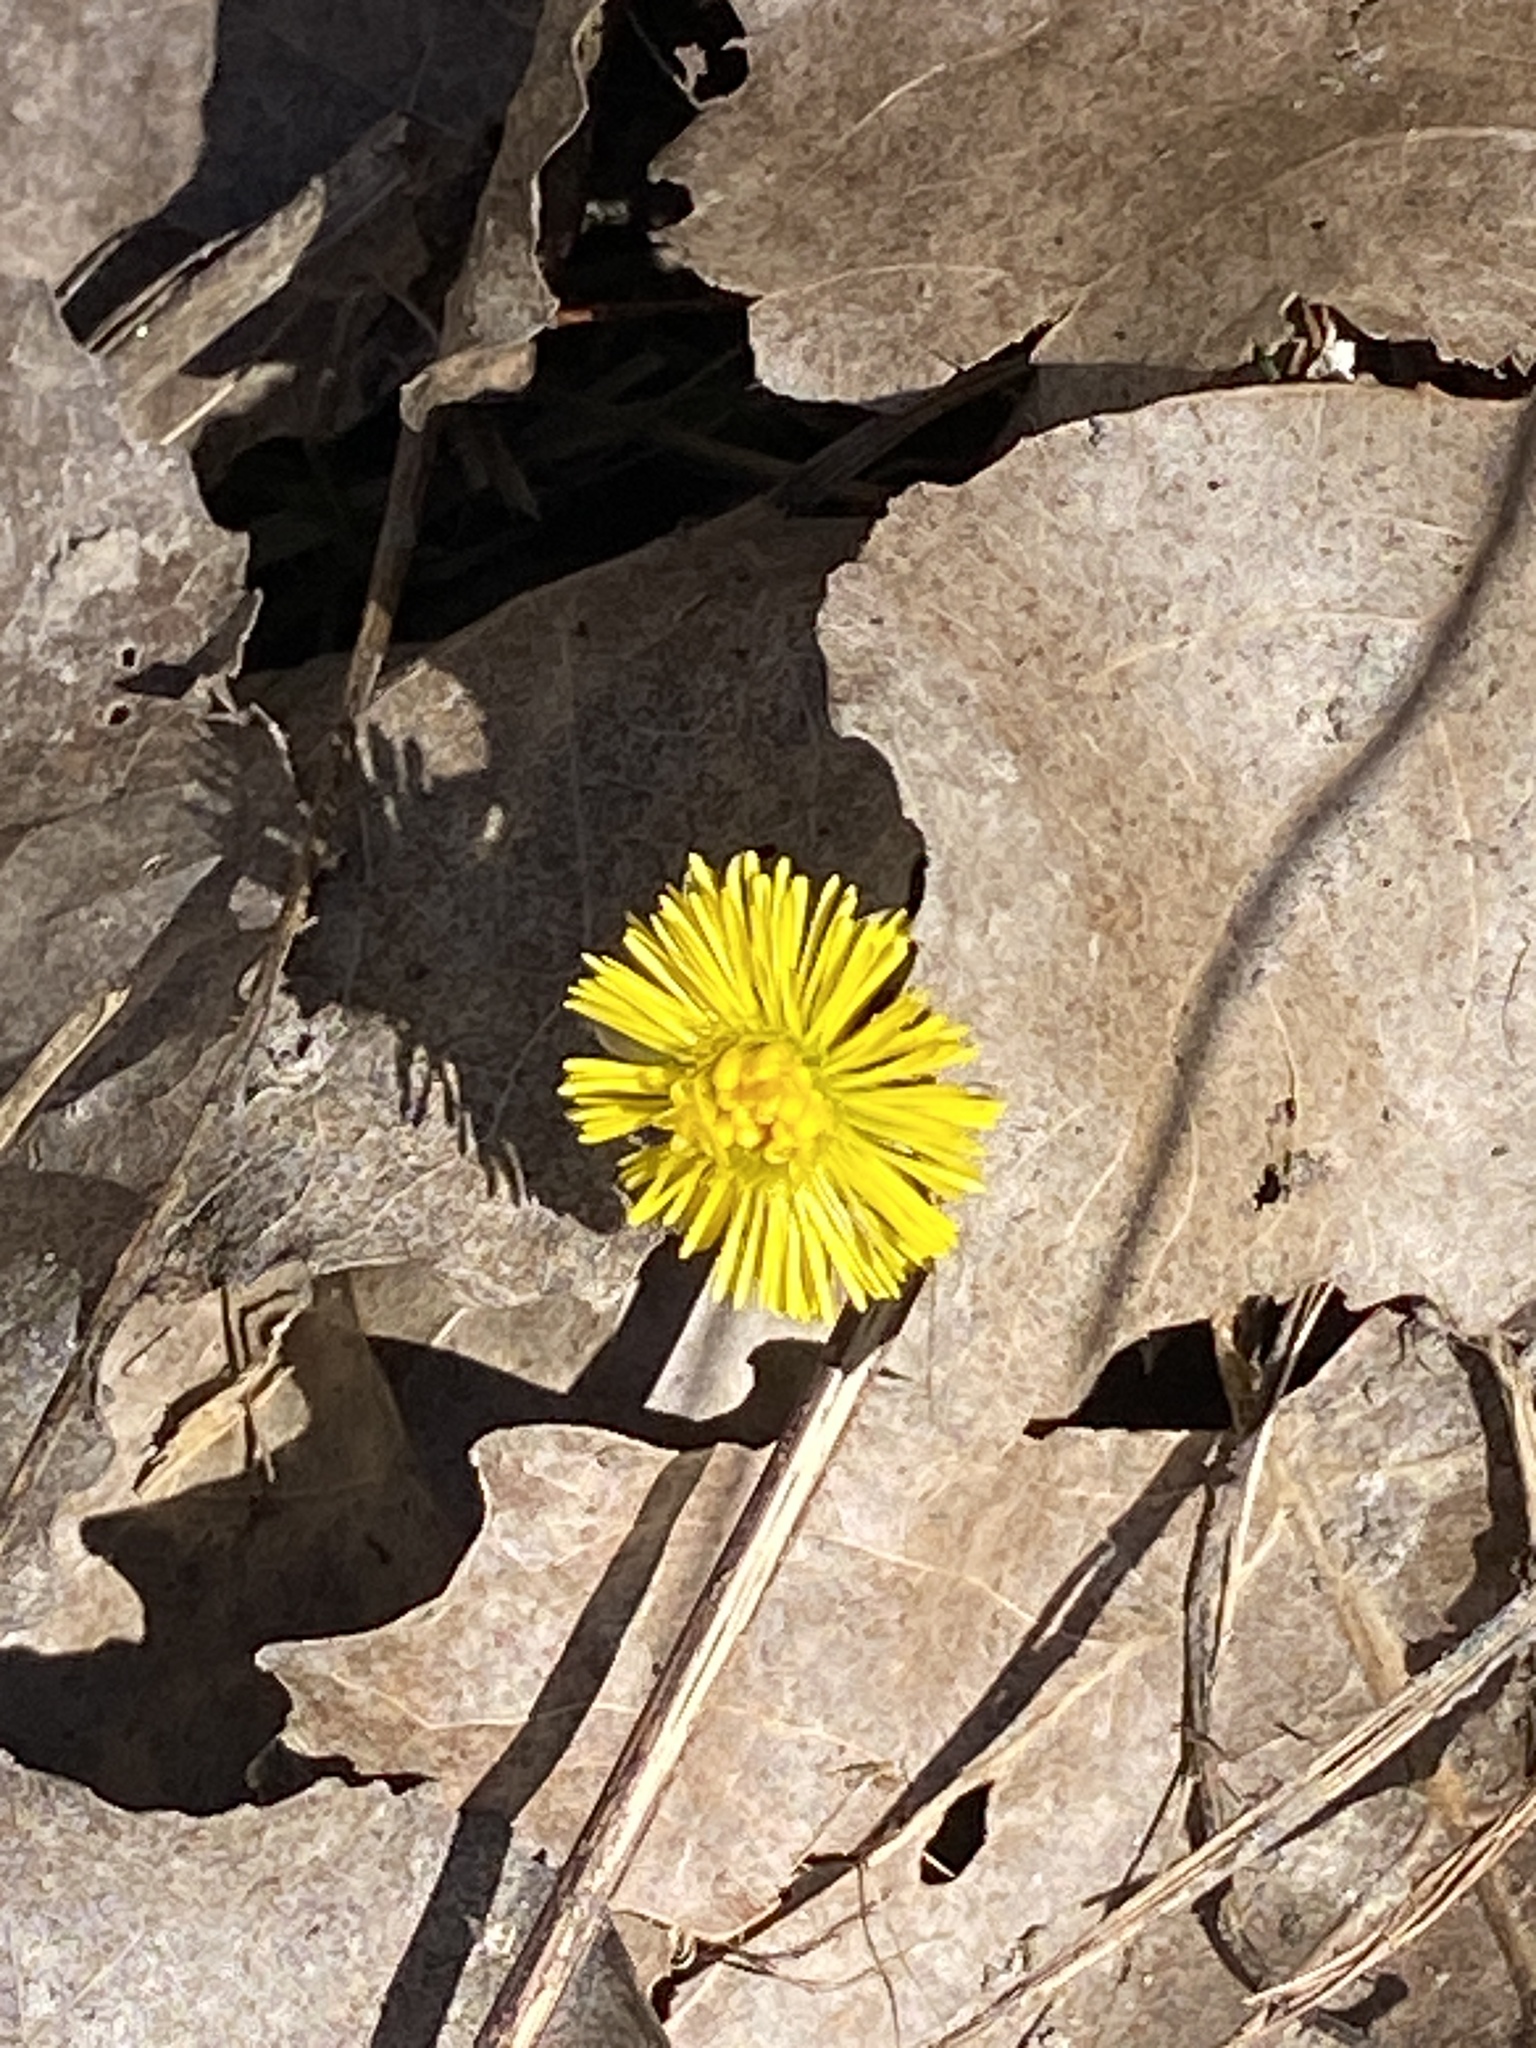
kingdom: Plantae
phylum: Tracheophyta
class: Magnoliopsida
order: Asterales
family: Asteraceae
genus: Tussilago
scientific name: Tussilago farfara
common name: Coltsfoot
